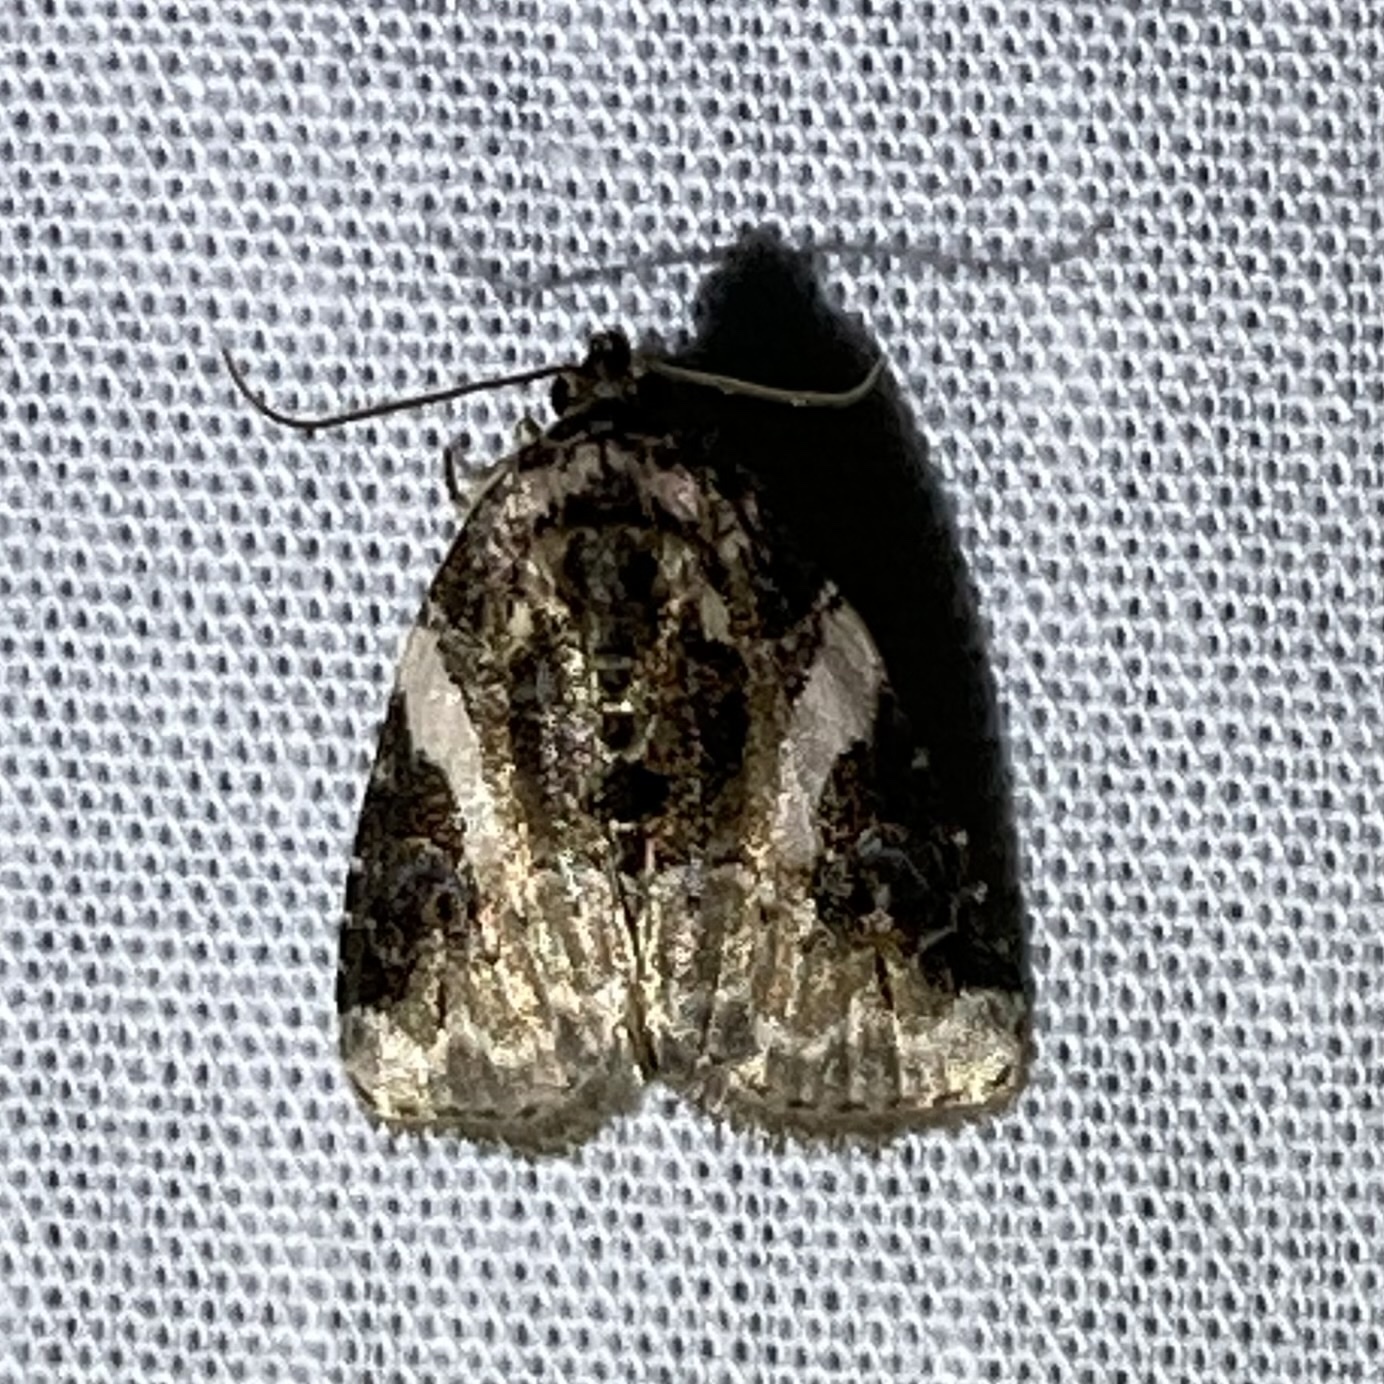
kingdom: Animalia
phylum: Arthropoda
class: Insecta
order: Lepidoptera
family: Noctuidae
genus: Pseudeustrotia
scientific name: Pseudeustrotia carneola
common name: Pink-barred lithacodia moth
